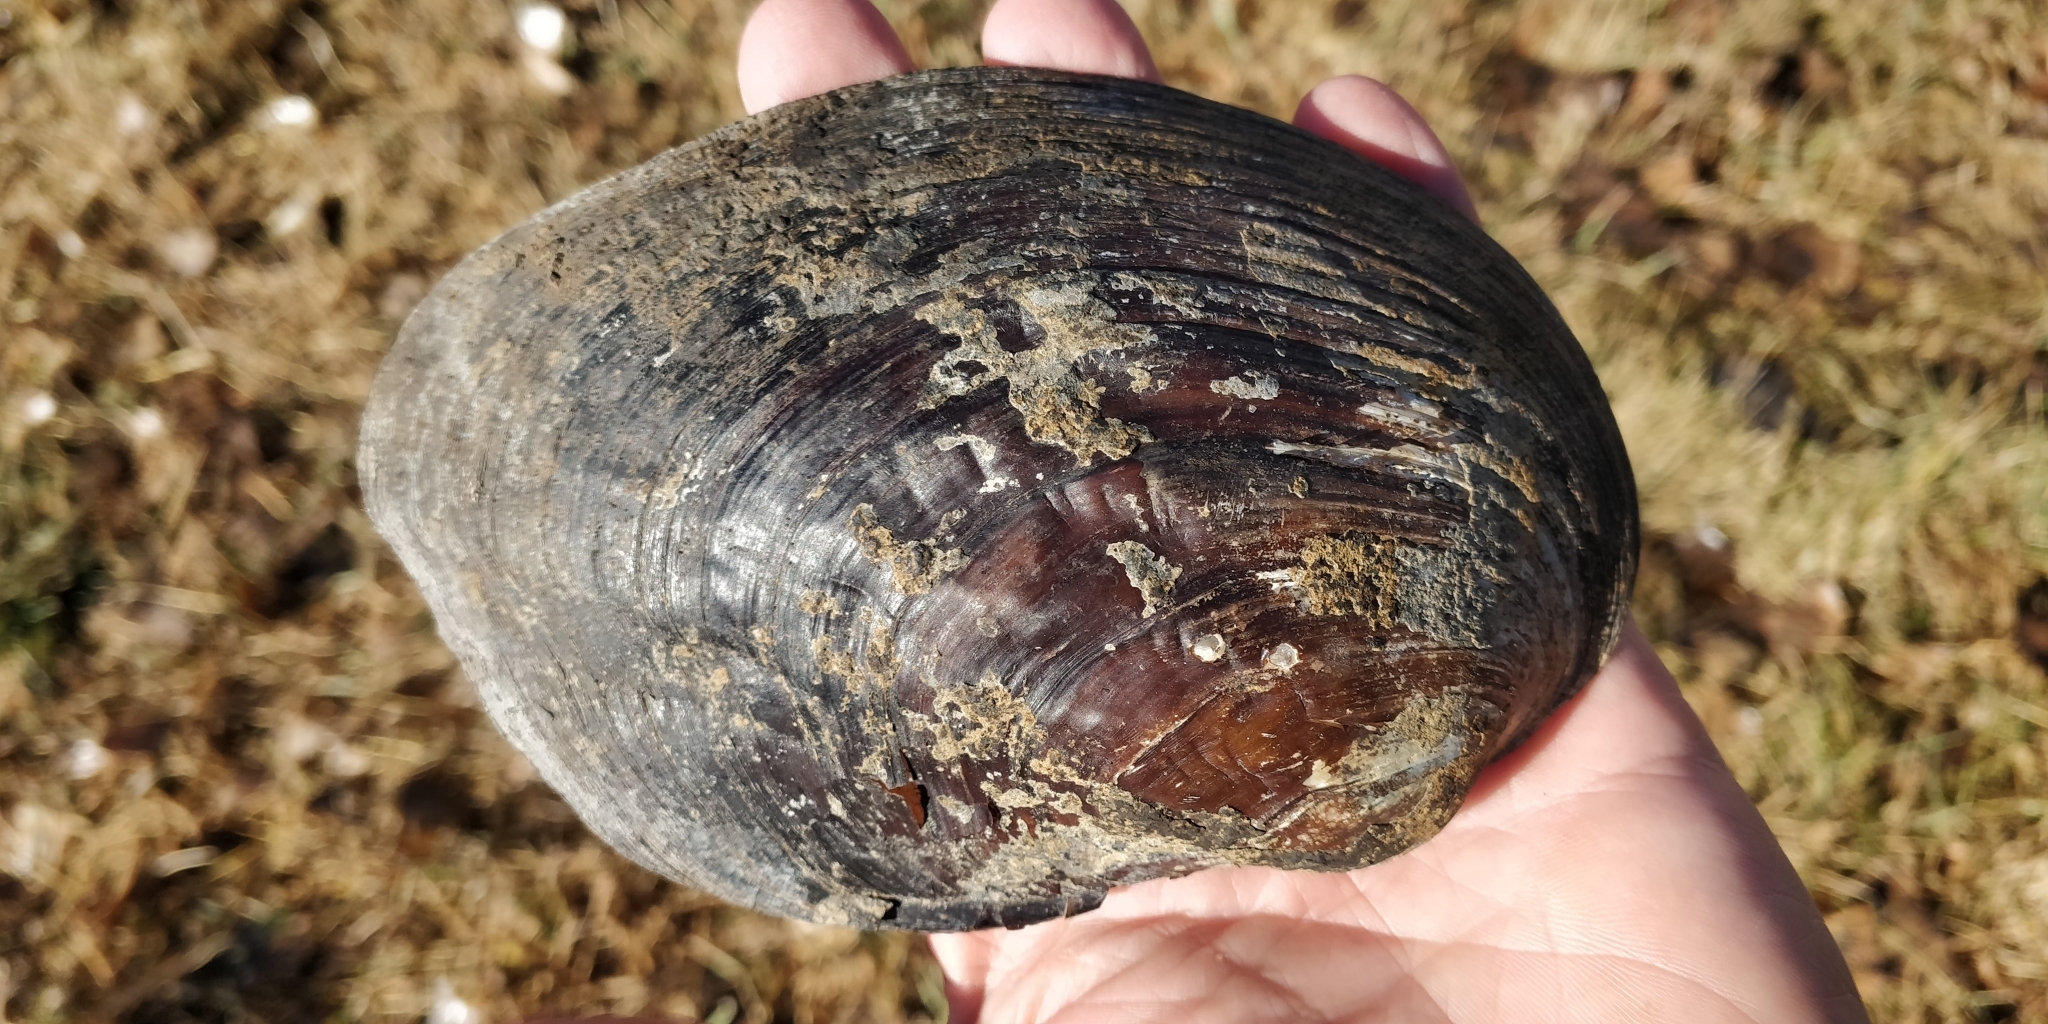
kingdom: Animalia
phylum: Mollusca
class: Bivalvia
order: Unionida
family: Unionidae
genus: Amblema
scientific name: Amblema plicata
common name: Threeridge
